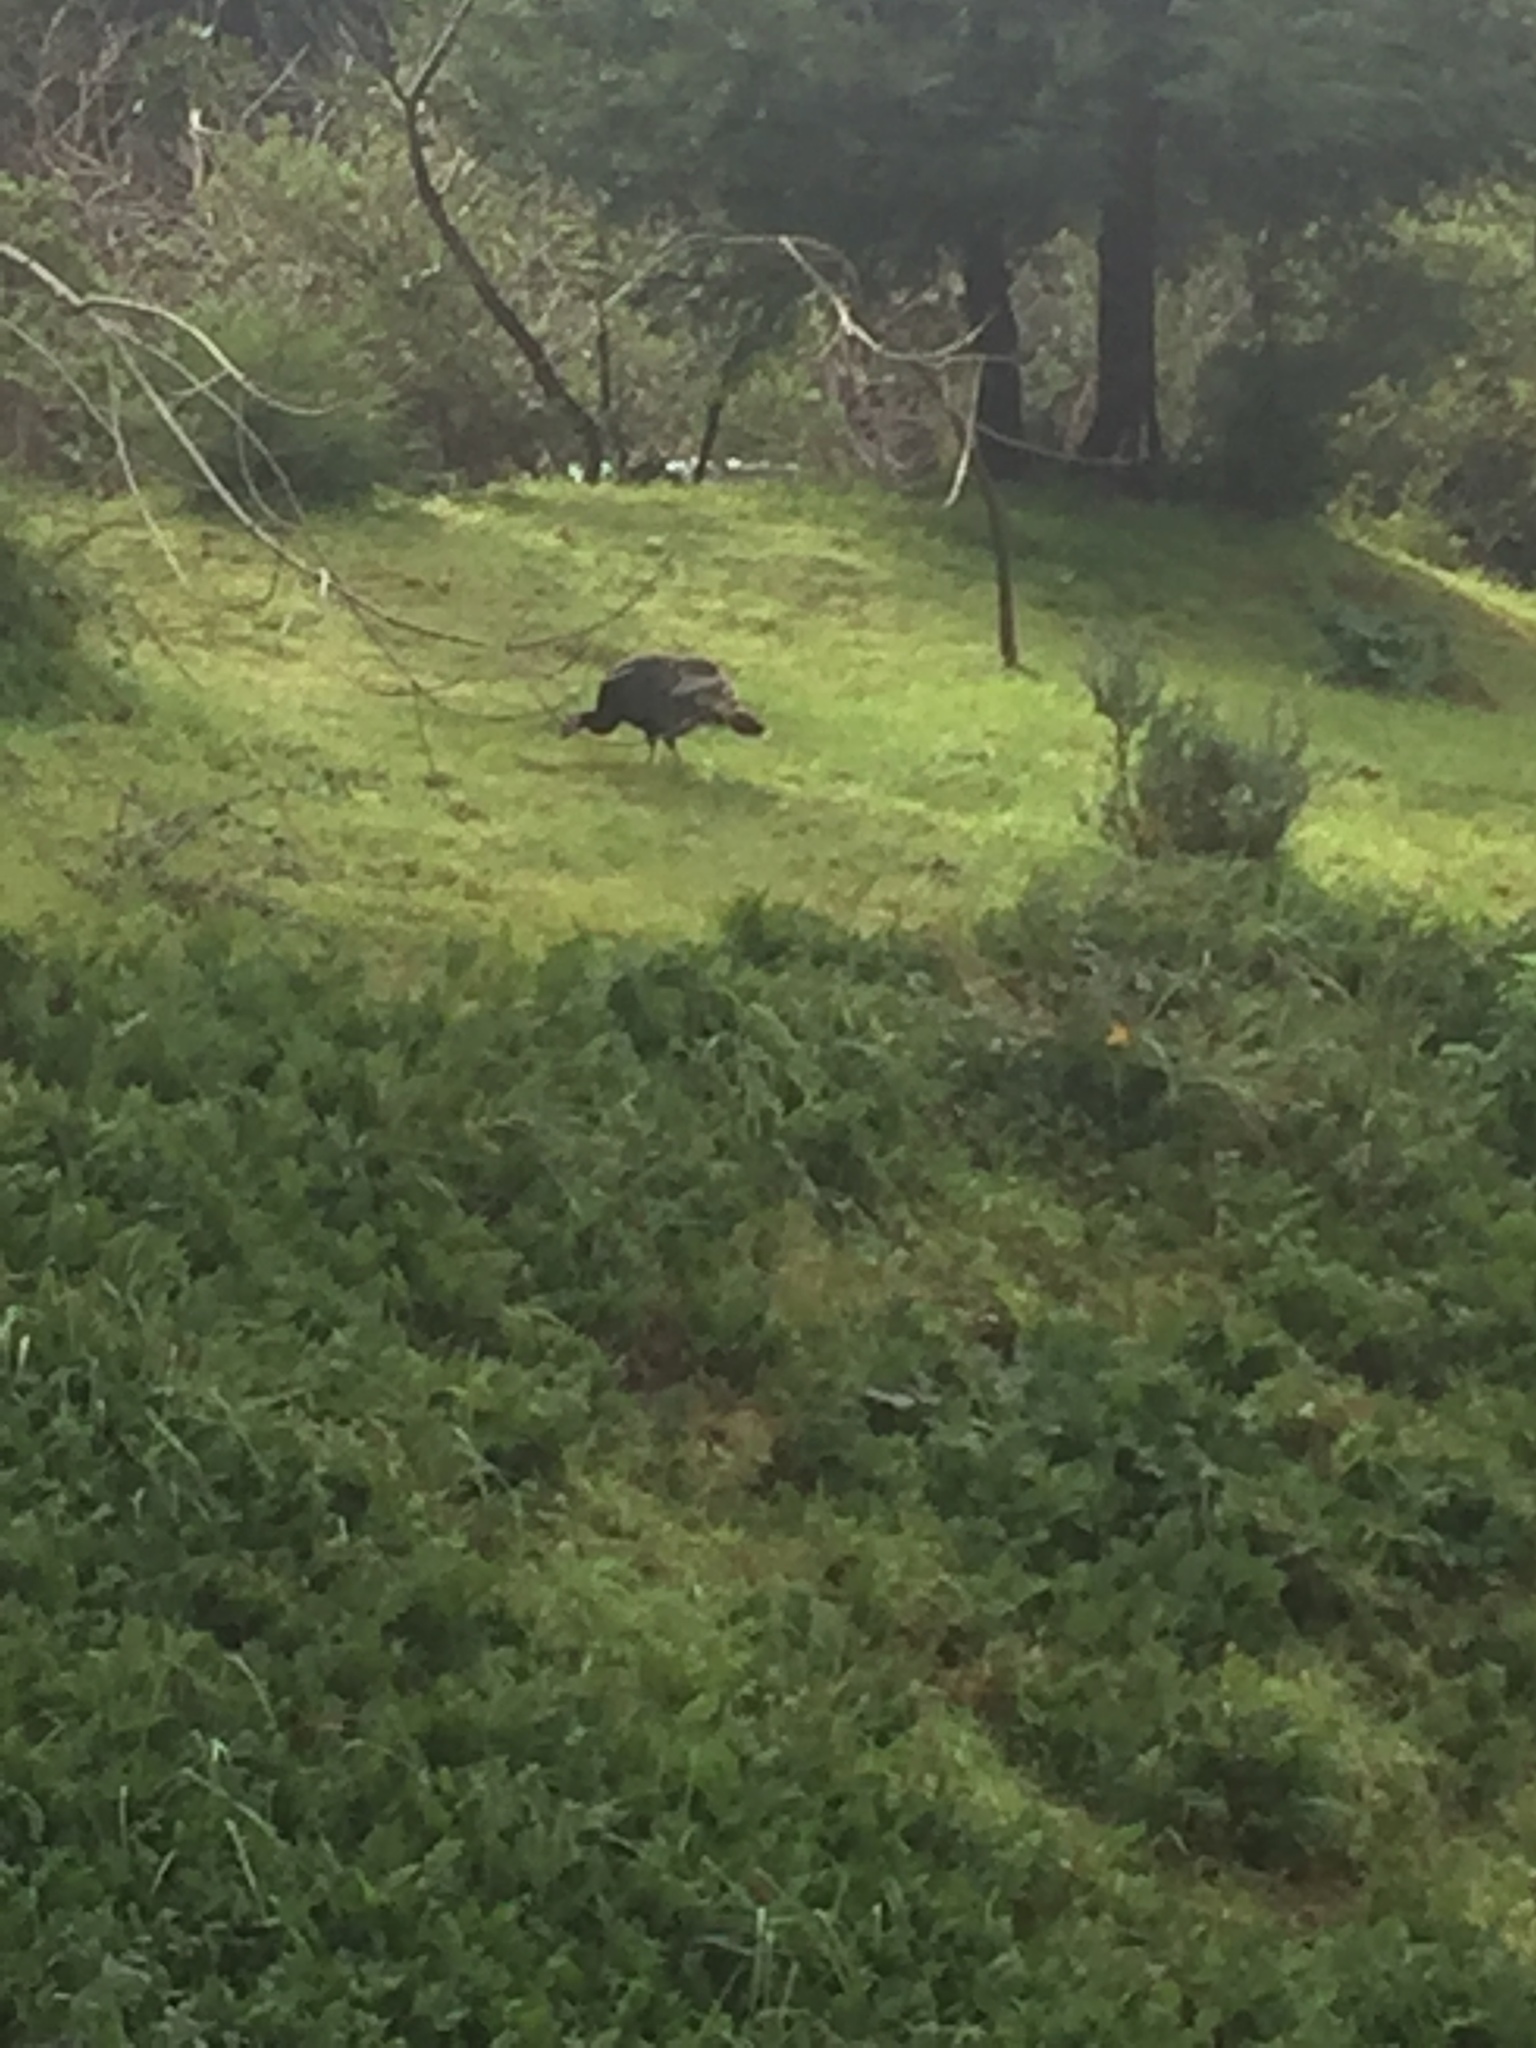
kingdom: Animalia
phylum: Chordata
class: Aves
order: Galliformes
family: Phasianidae
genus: Meleagris
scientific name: Meleagris gallopavo
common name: Wild turkey
